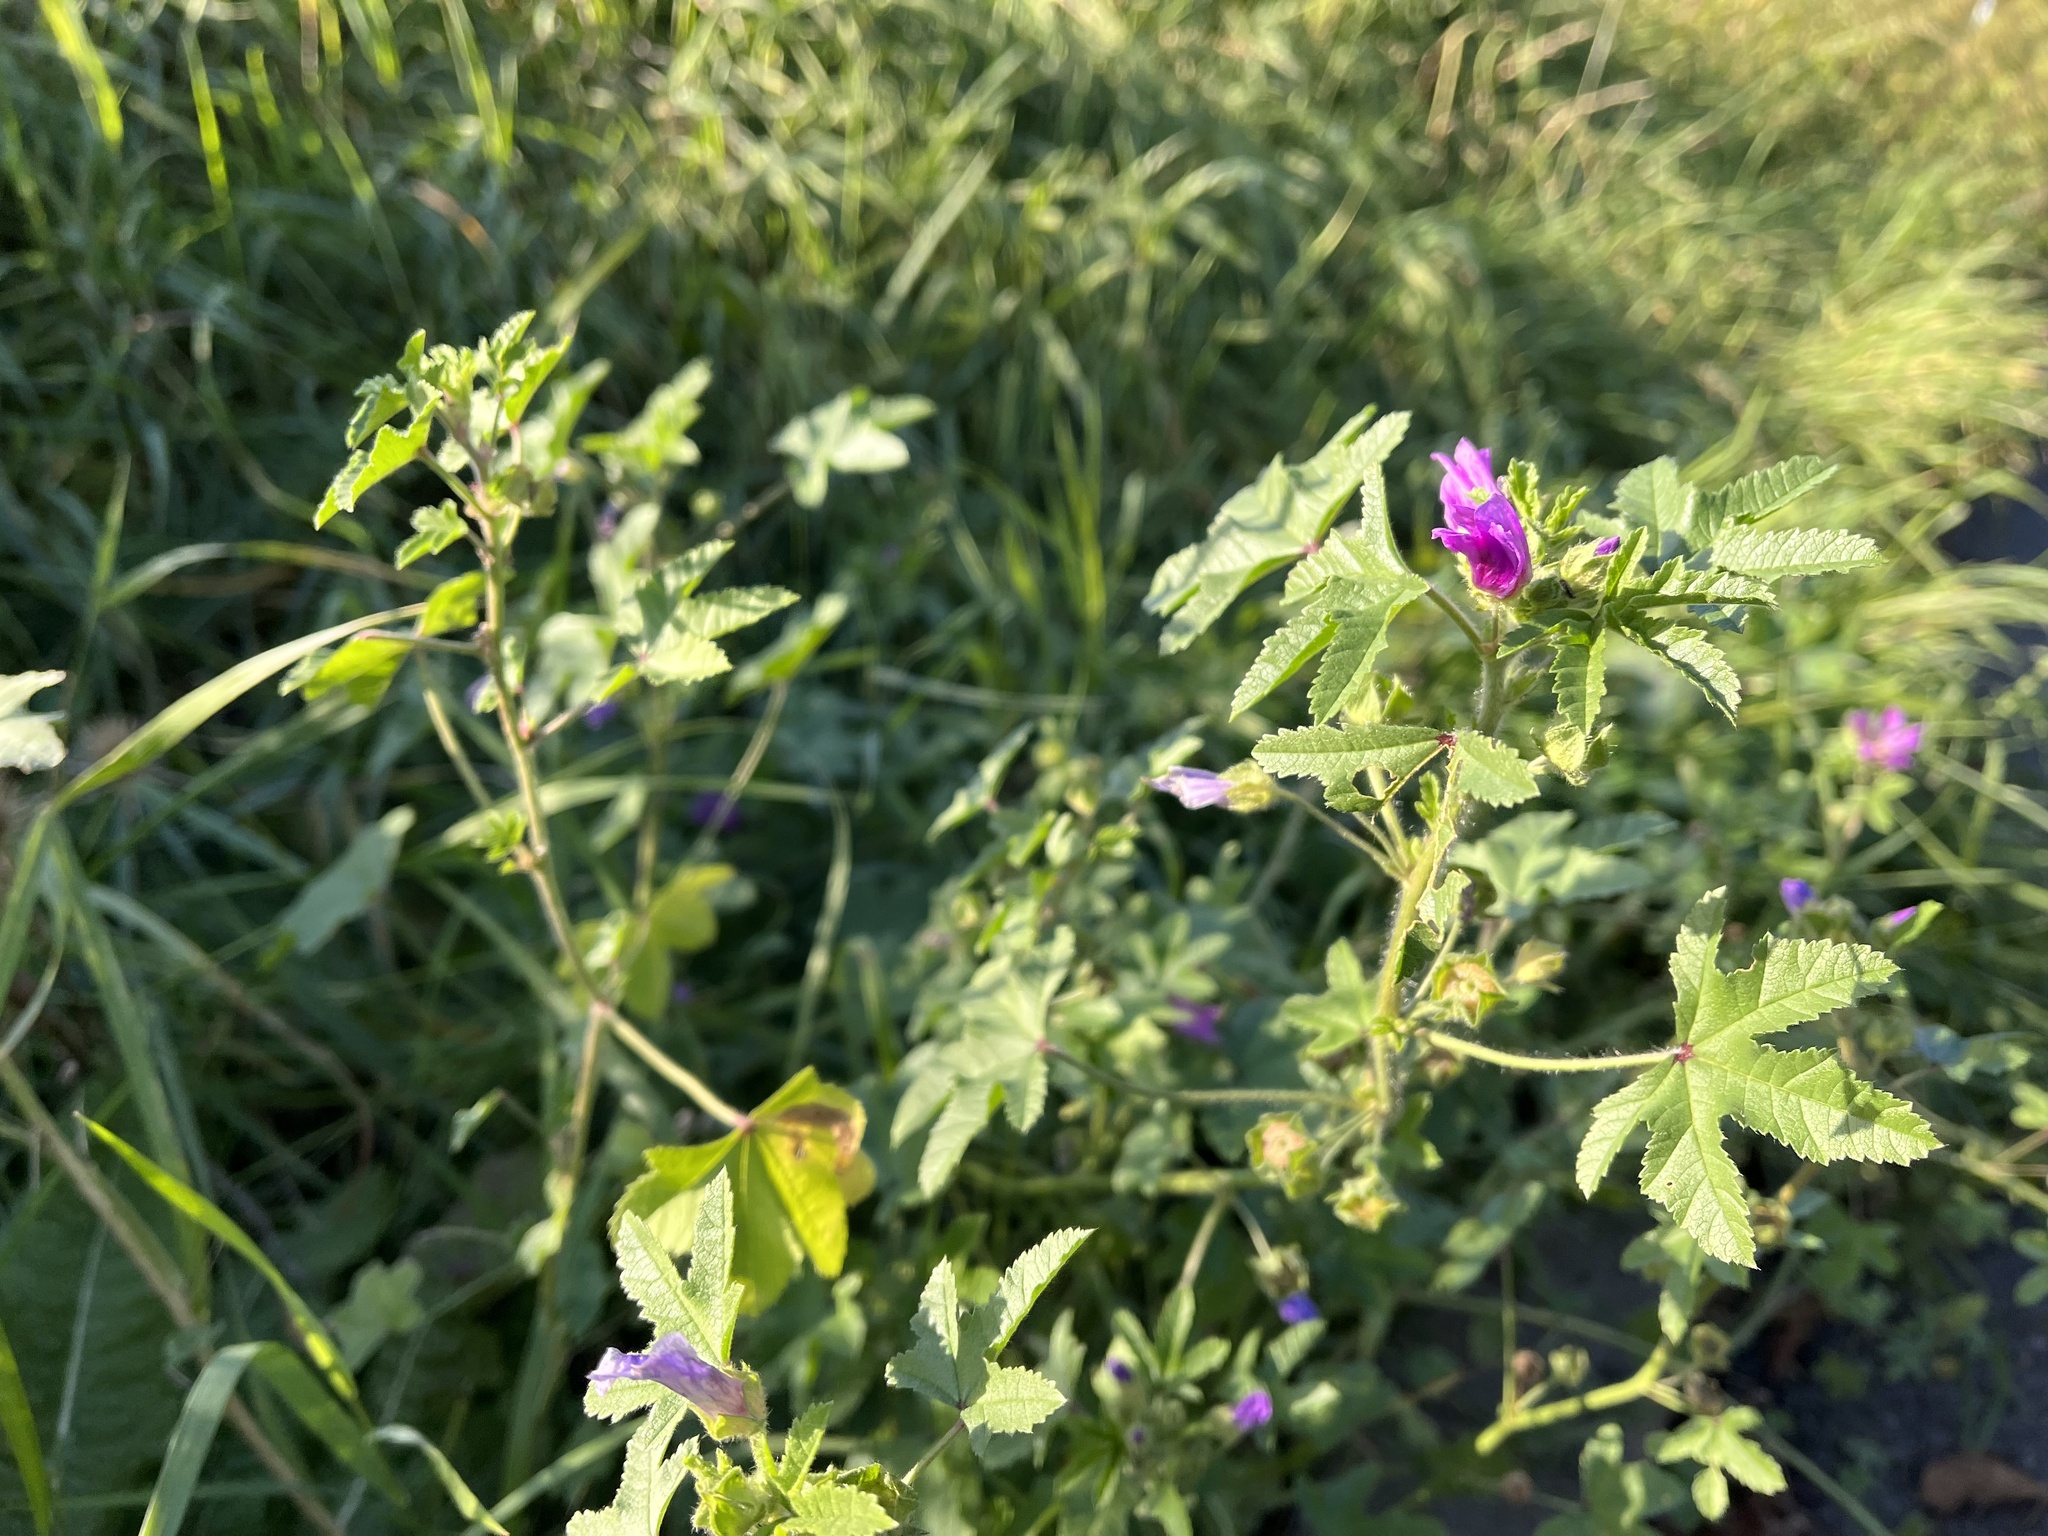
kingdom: Plantae
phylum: Tracheophyta
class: Magnoliopsida
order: Malvales
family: Malvaceae
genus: Malva
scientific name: Malva sylvestris
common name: Common mallow
